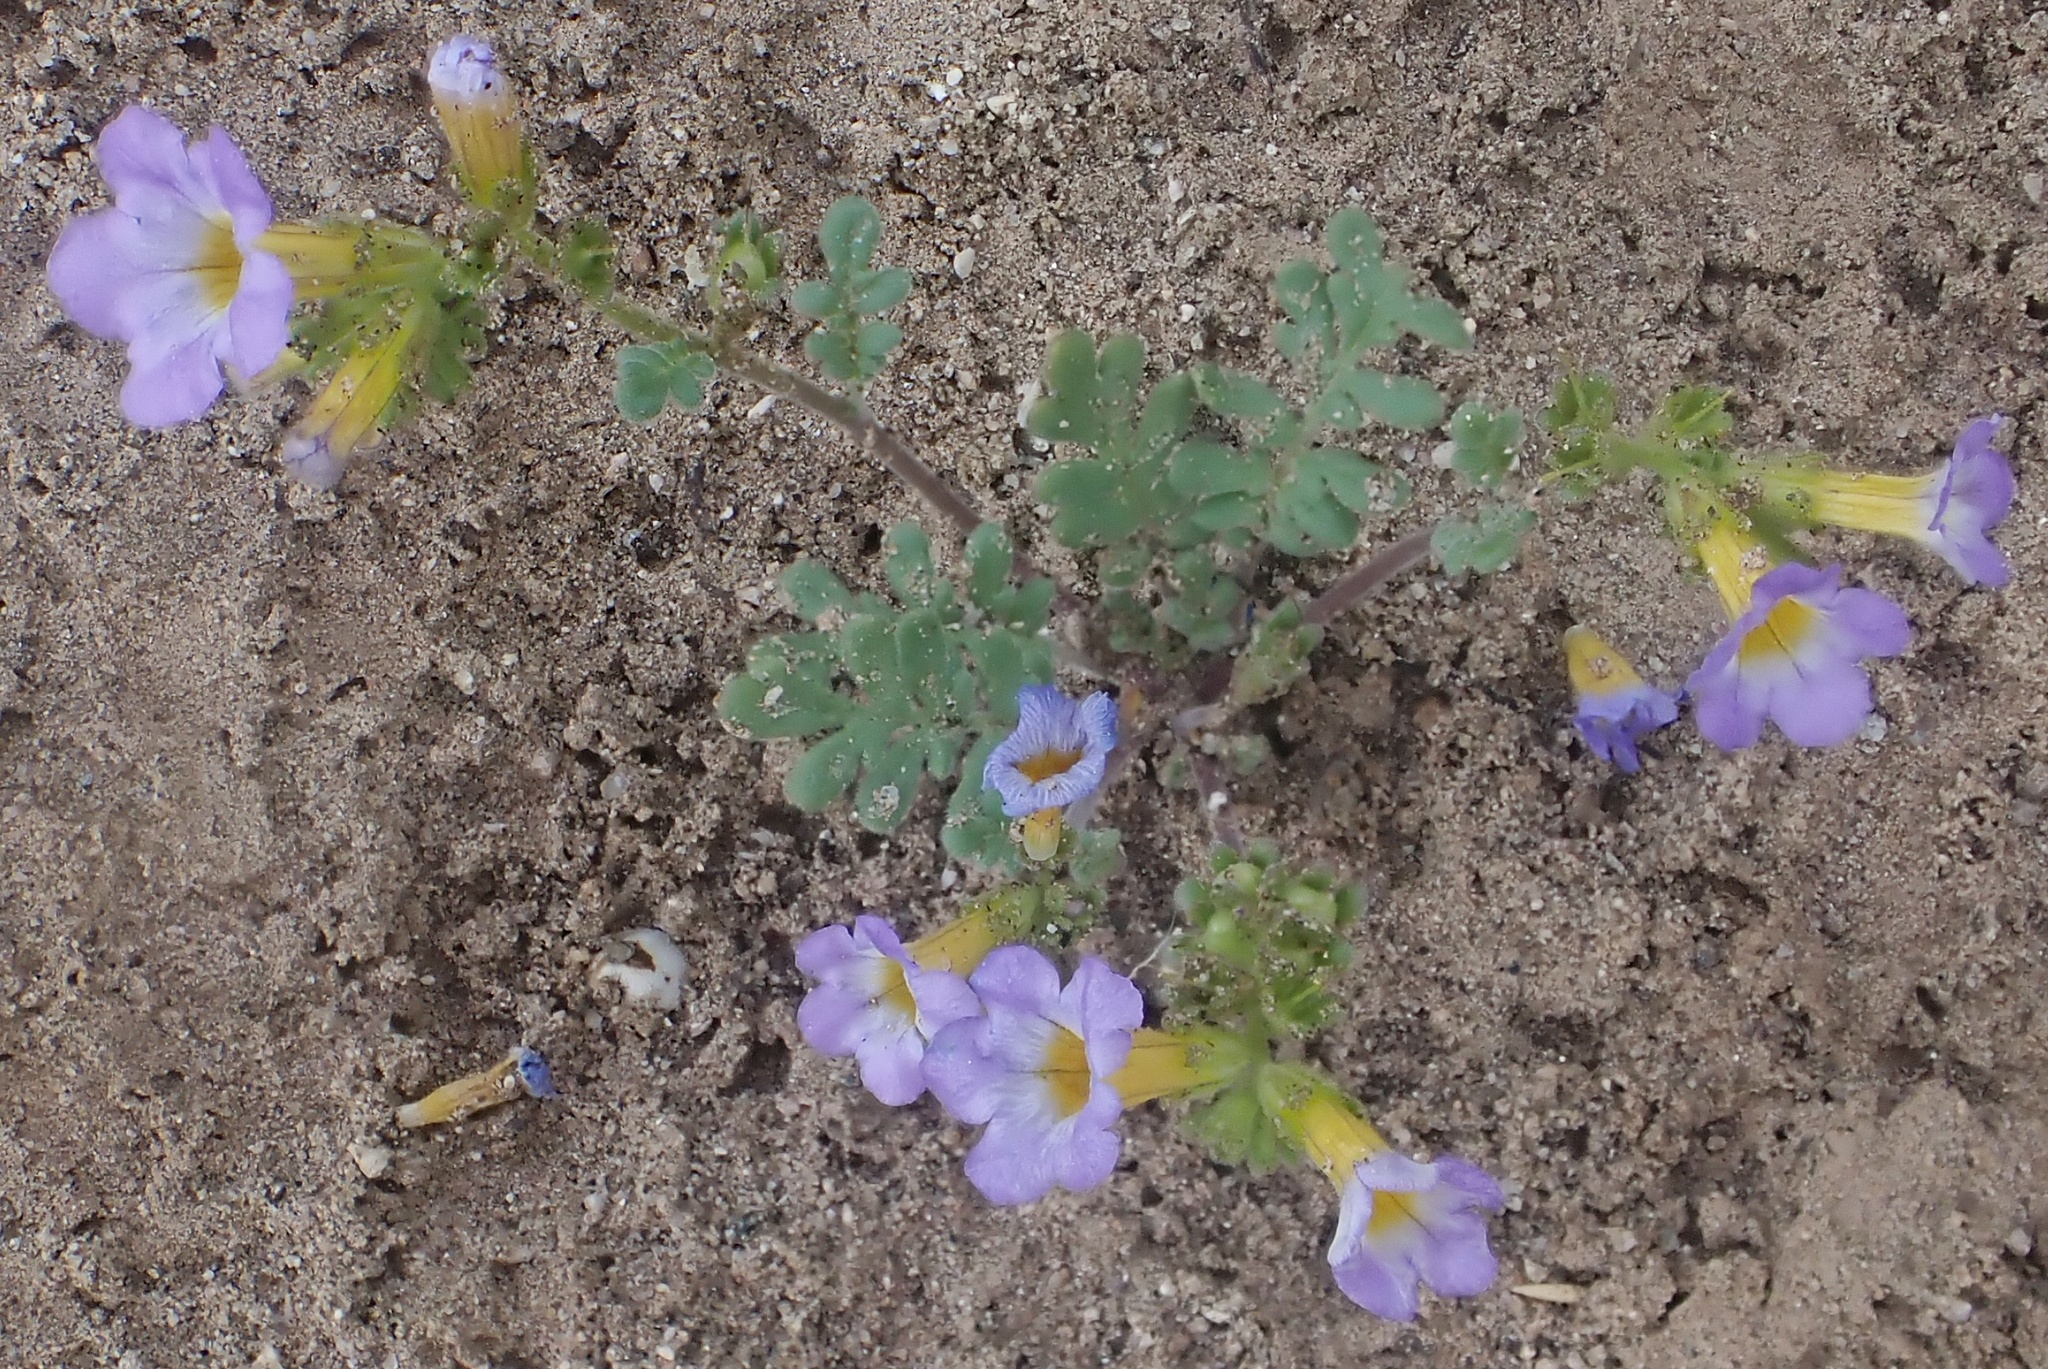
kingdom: Plantae
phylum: Tracheophyta
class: Magnoliopsida
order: Boraginales
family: Hydrophyllaceae
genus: Phacelia
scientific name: Phacelia fremontii
